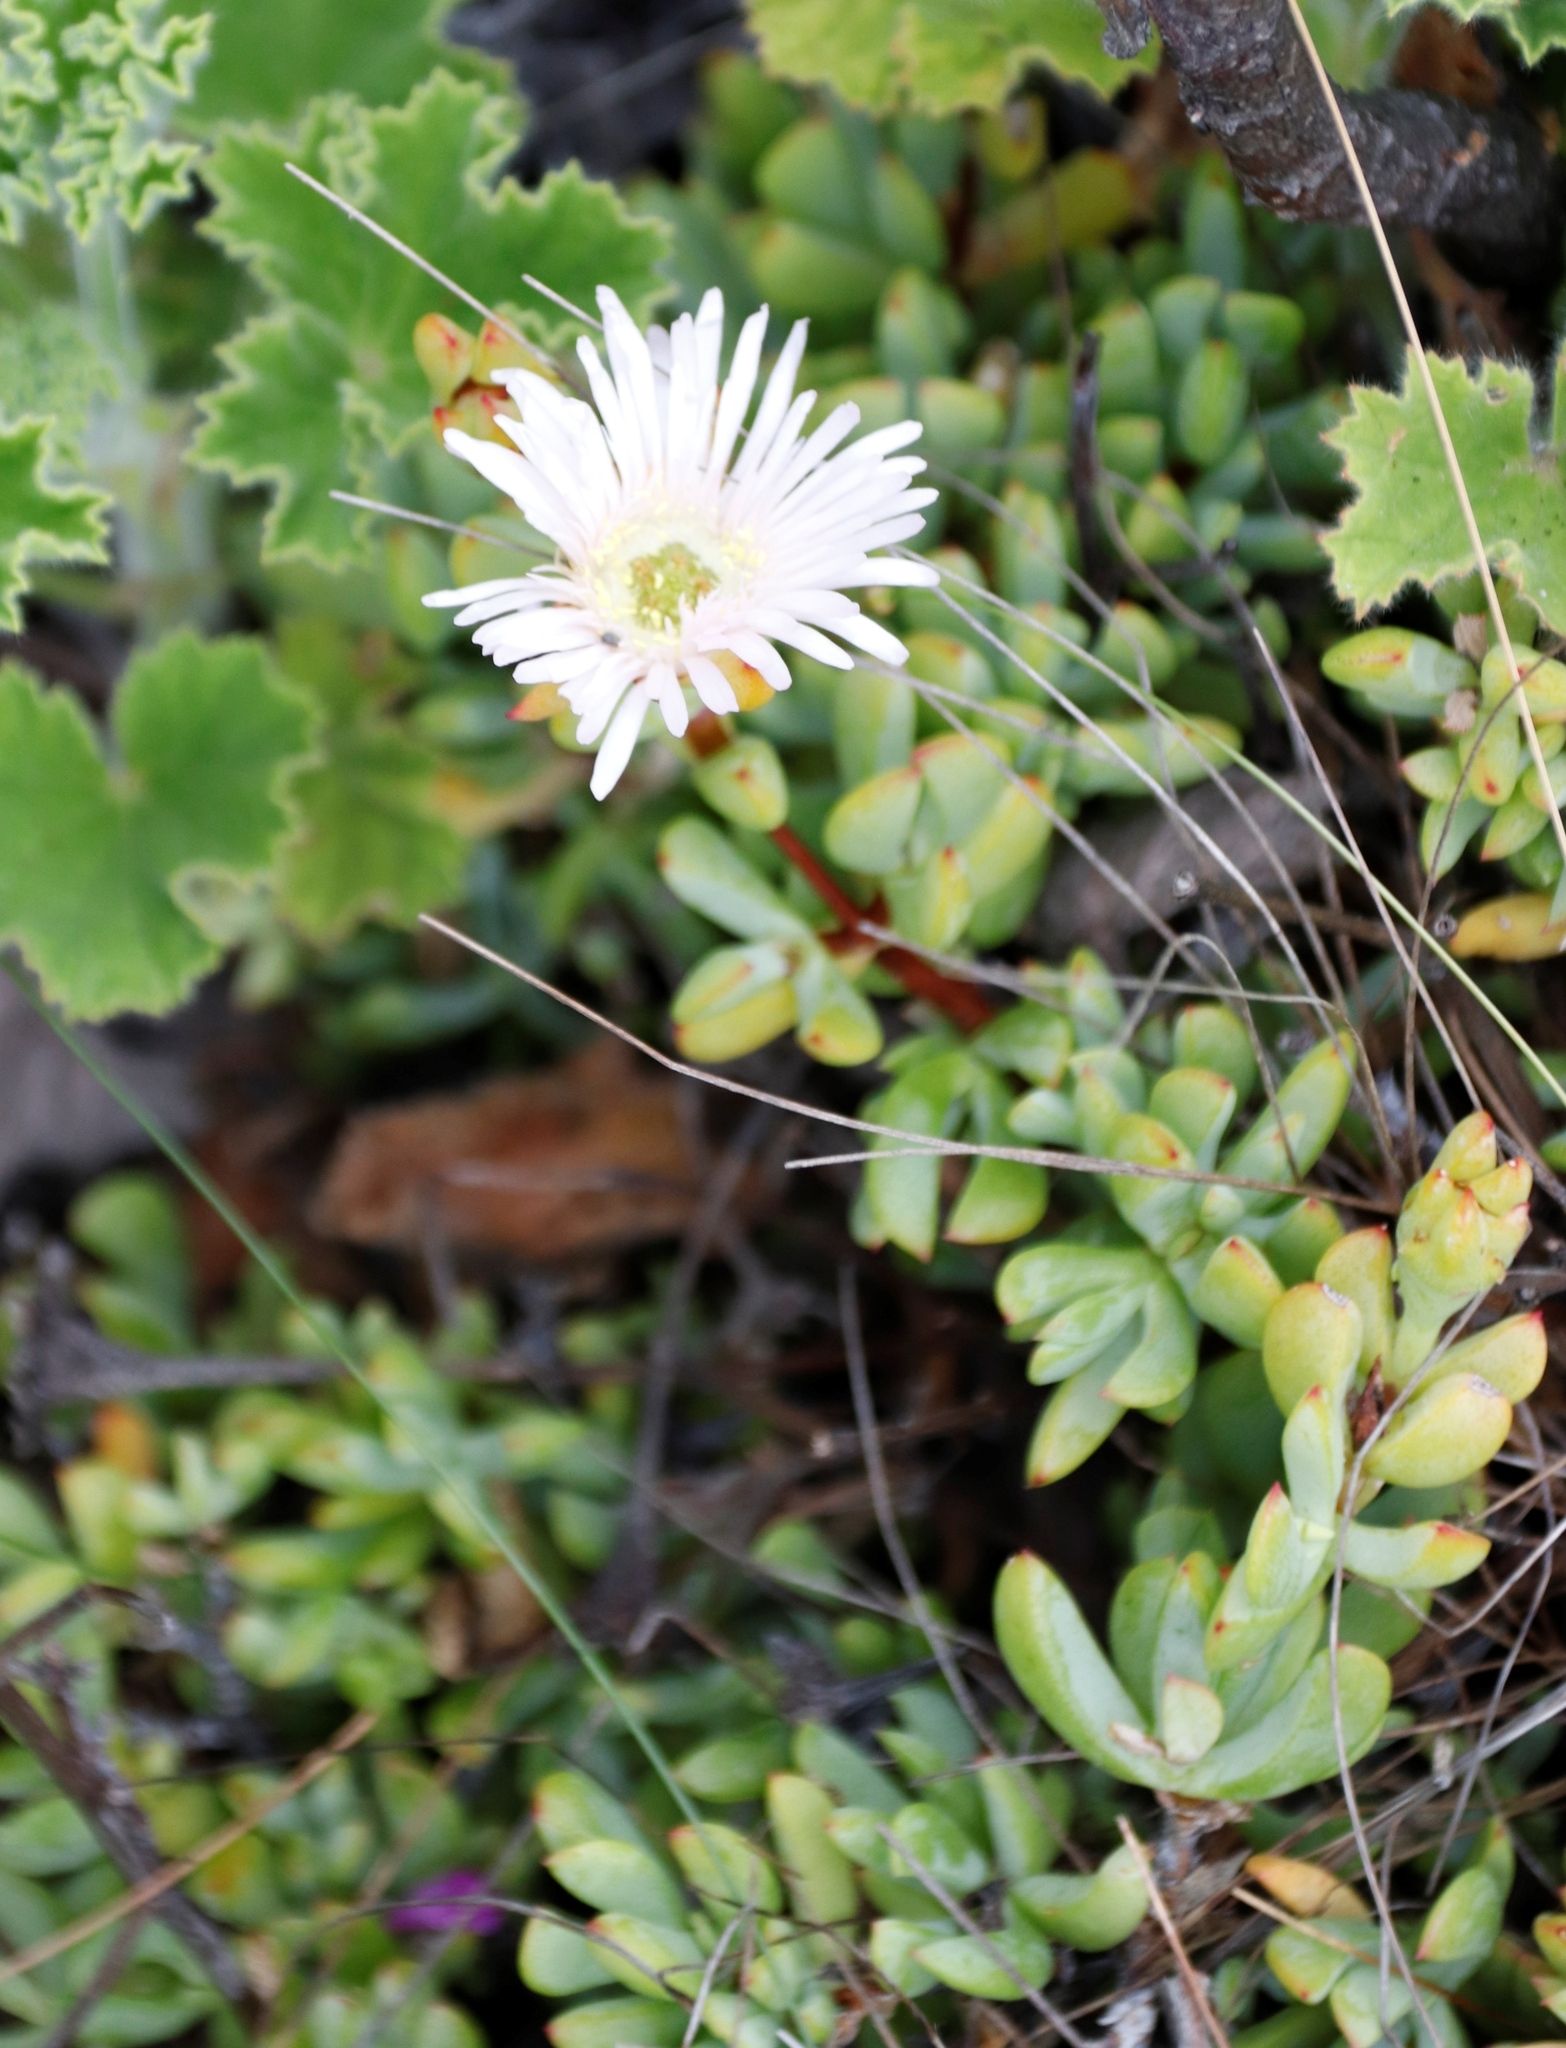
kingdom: Plantae
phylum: Tracheophyta
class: Magnoliopsida
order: Caryophyllales
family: Aizoaceae
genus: Oscularia
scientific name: Oscularia falciformis
